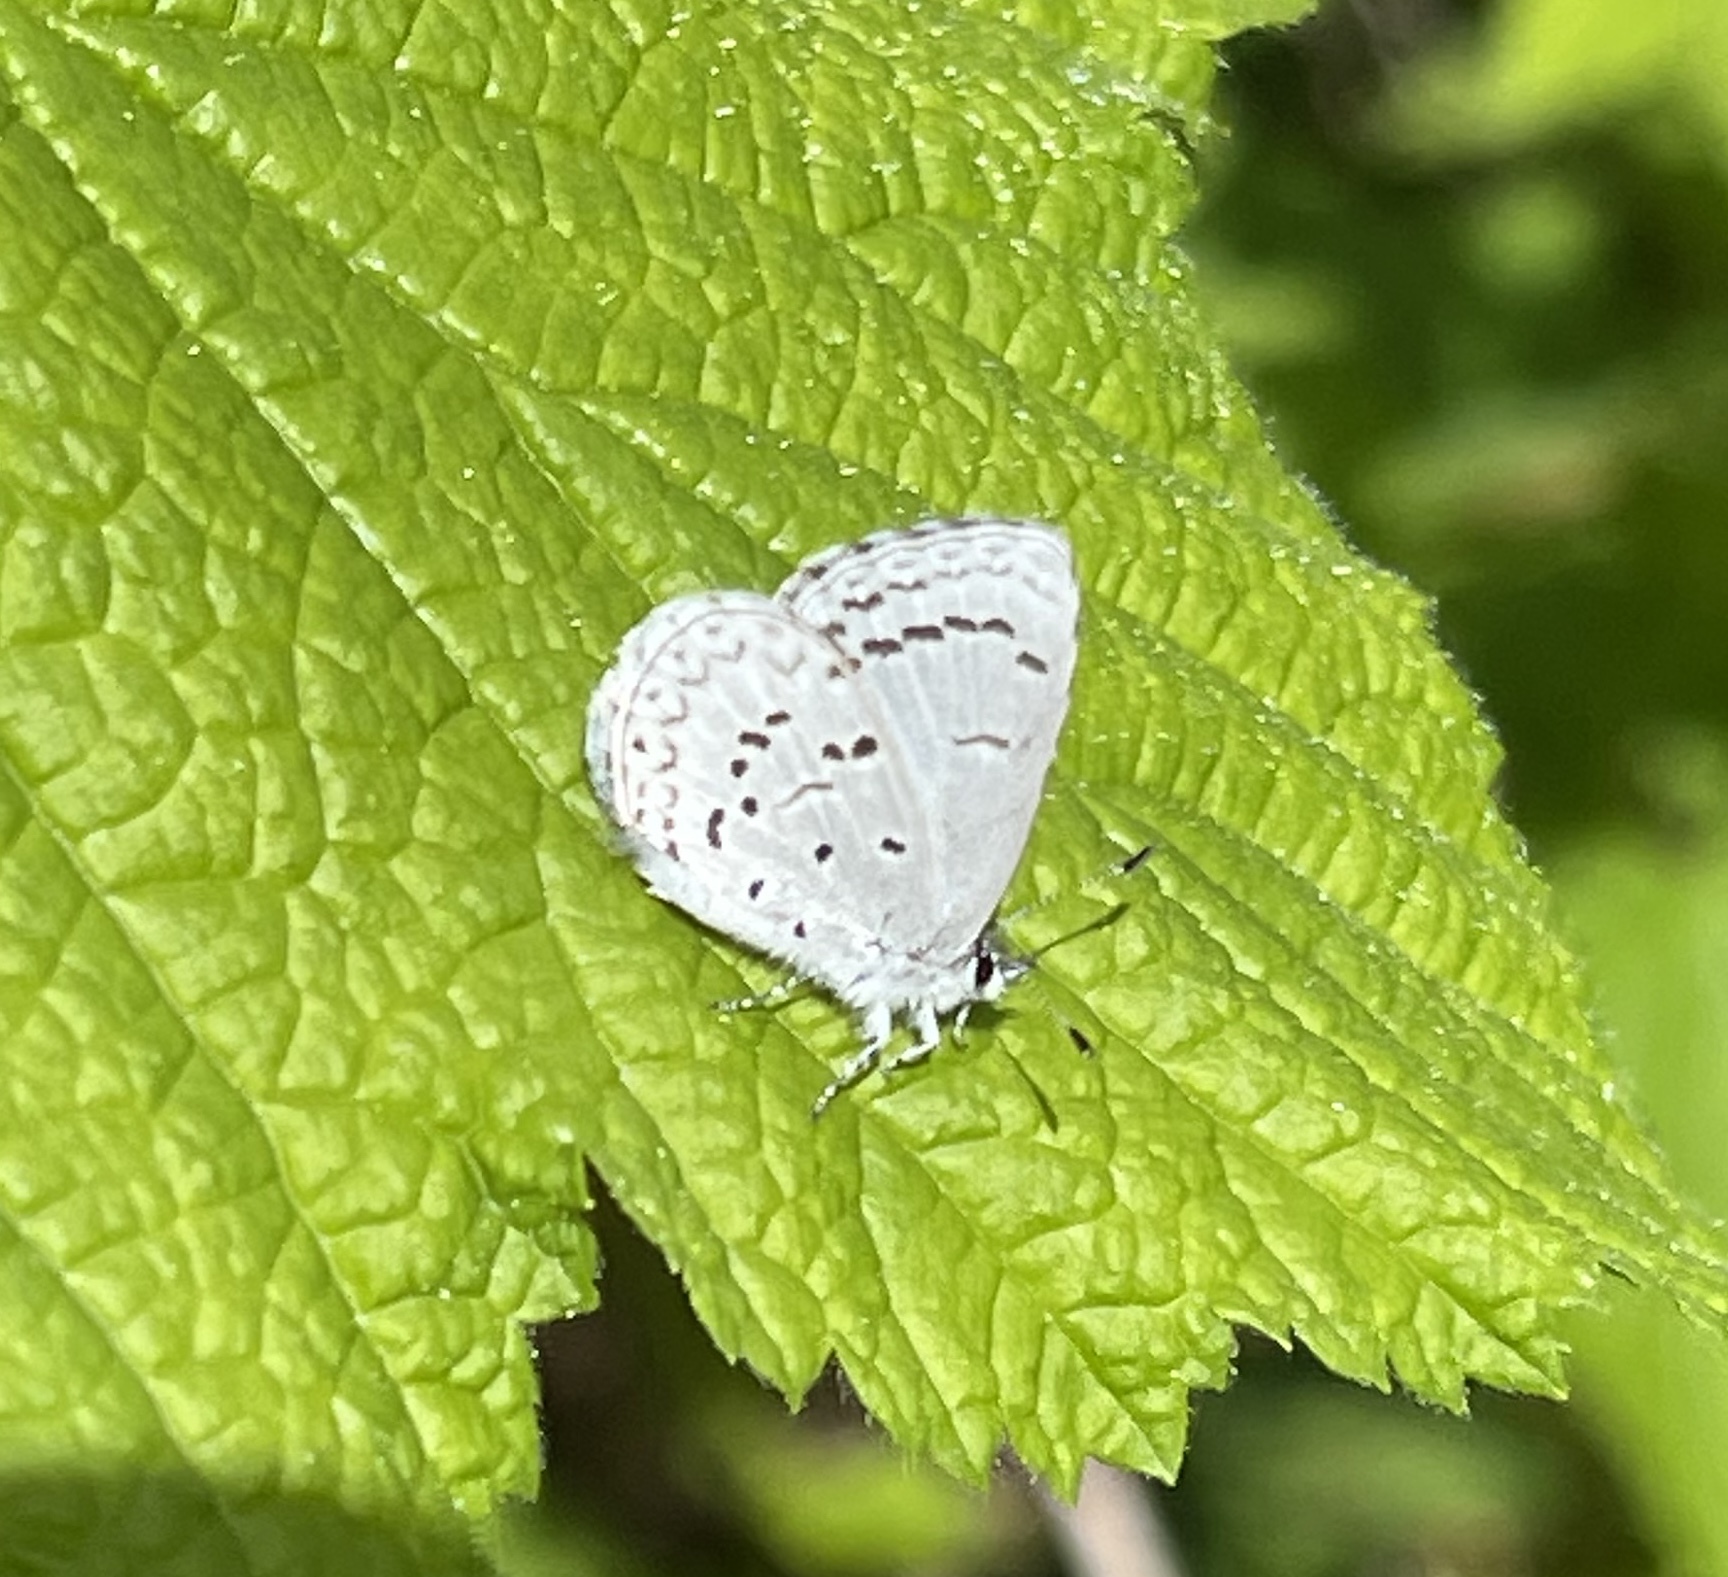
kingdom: Animalia
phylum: Arthropoda
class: Insecta
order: Lepidoptera
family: Lycaenidae
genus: Celastrina
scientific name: Celastrina ladon
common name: Spring azure
